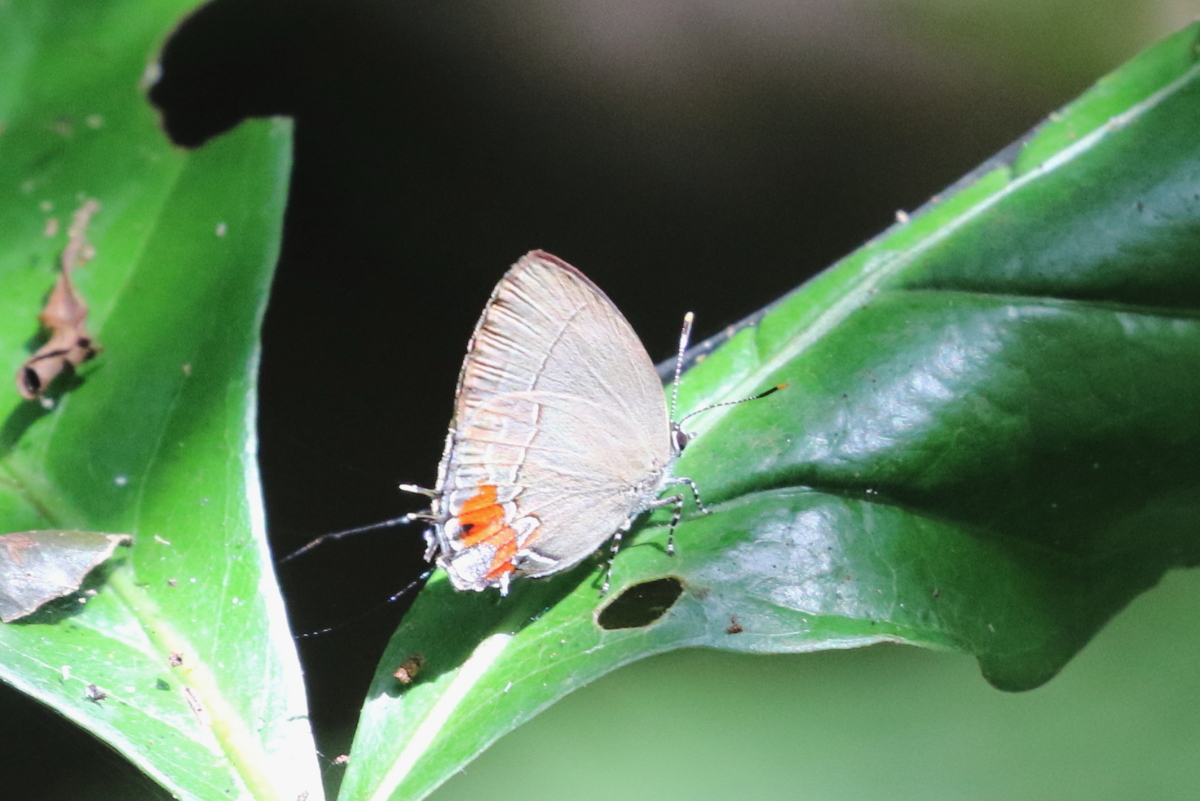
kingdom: Animalia
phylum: Arthropoda
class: Insecta
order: Lepidoptera
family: Lycaenidae
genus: Symbiopsis
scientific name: Symbiopsis rickmani
